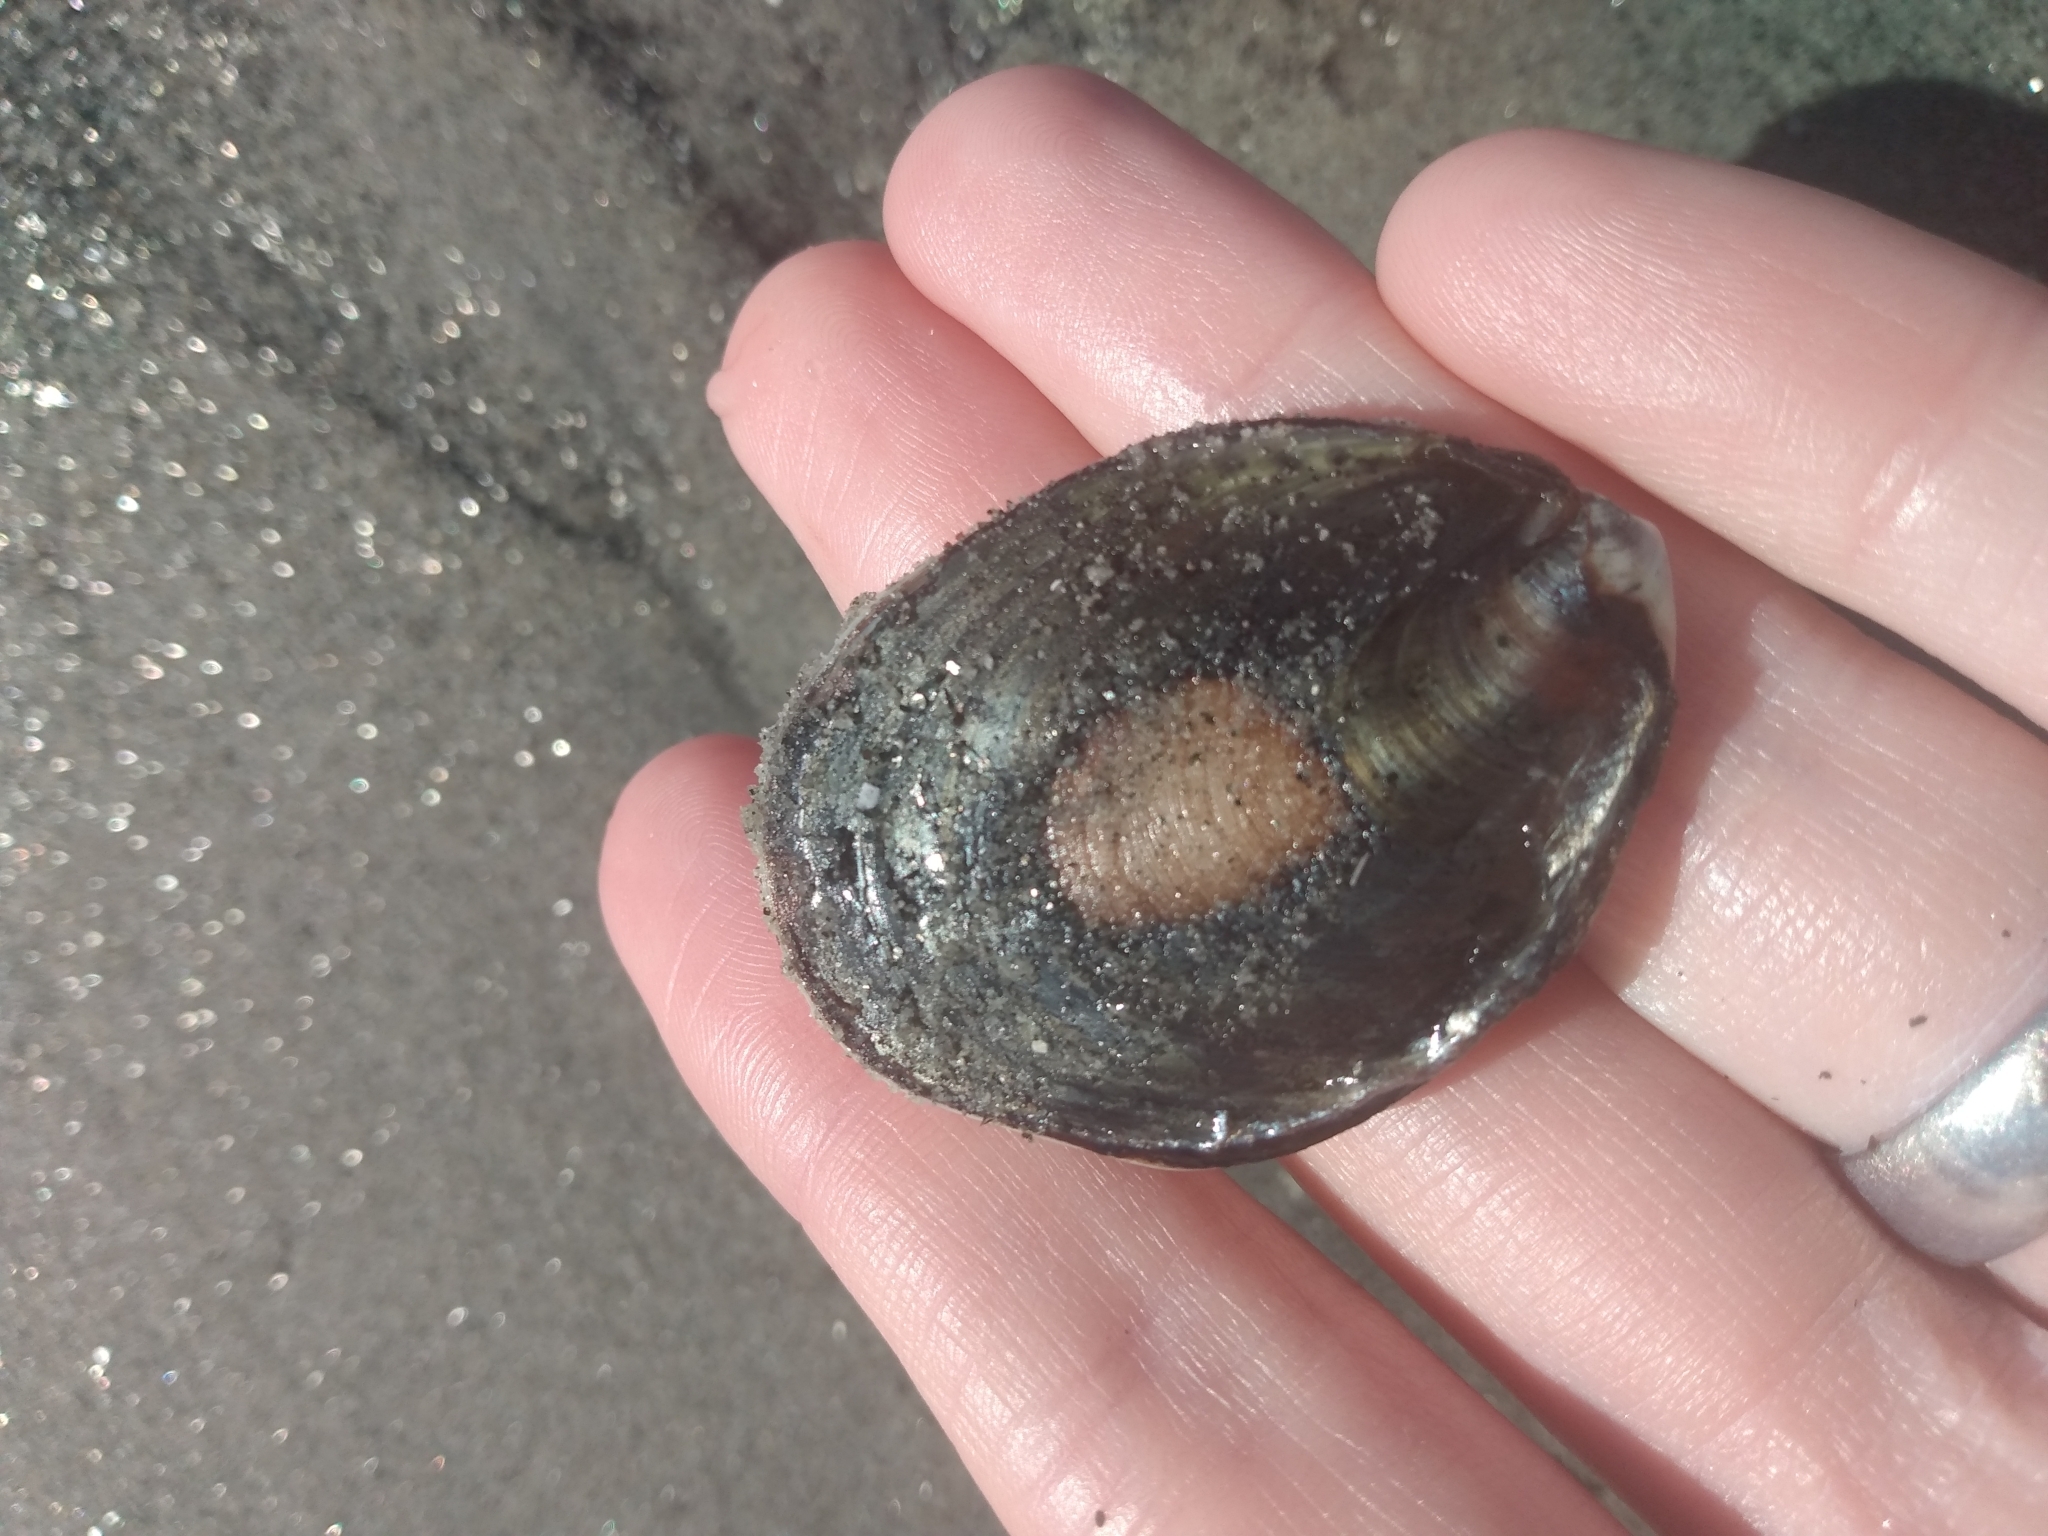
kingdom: Animalia
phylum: Mollusca
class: Gastropoda
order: Trochida
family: Turbinidae
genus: Megastraea
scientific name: Megastraea undosa
